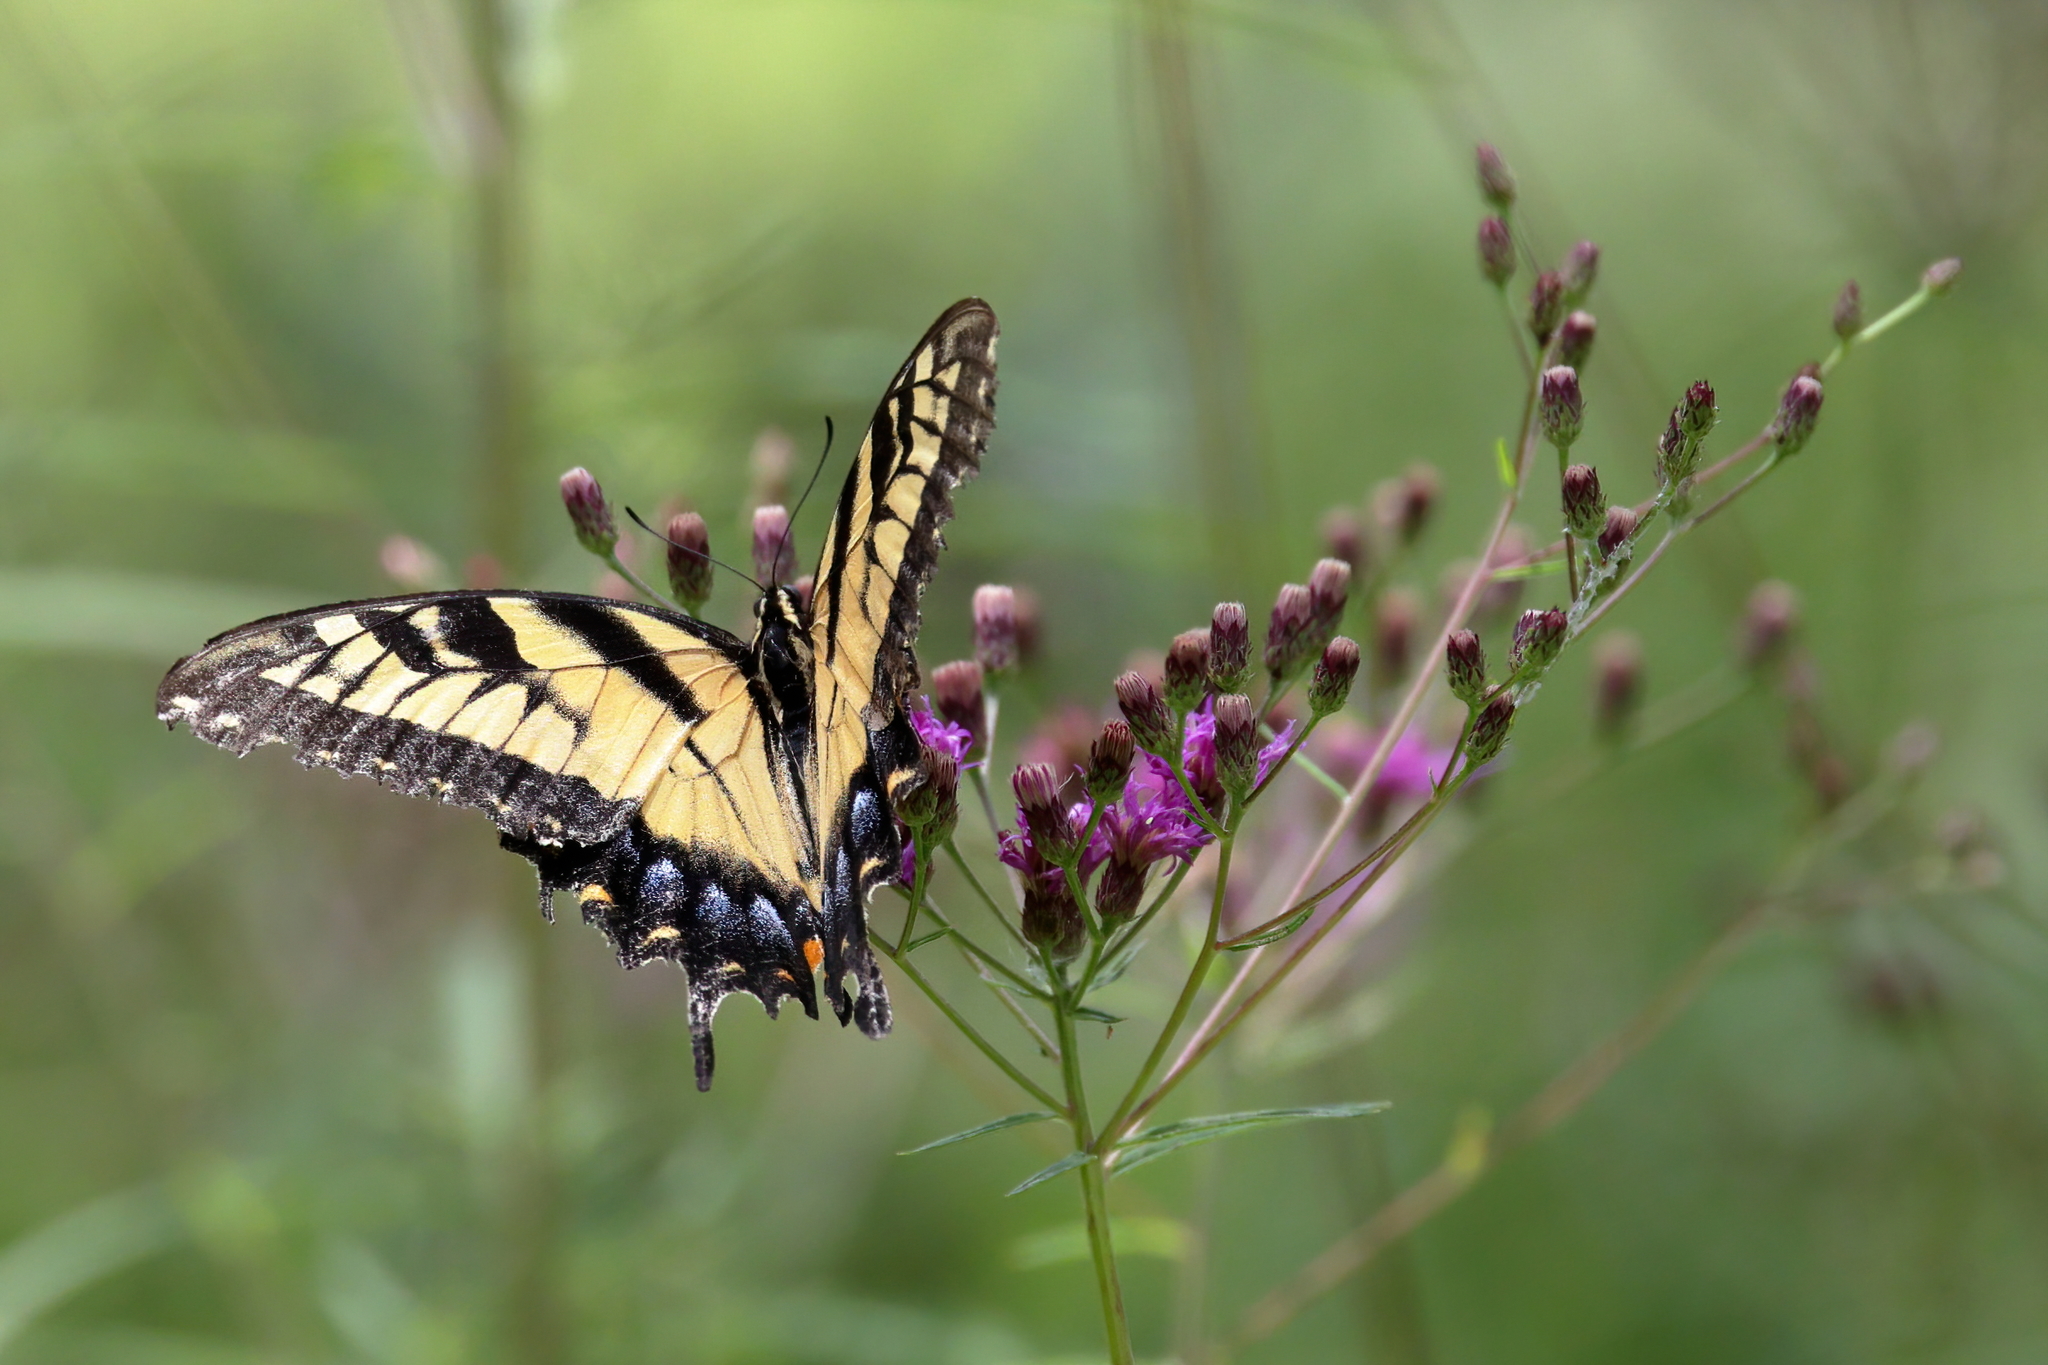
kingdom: Animalia
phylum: Arthropoda
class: Insecta
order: Lepidoptera
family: Papilionidae
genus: Papilio
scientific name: Papilio glaucus
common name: Tiger swallowtail
